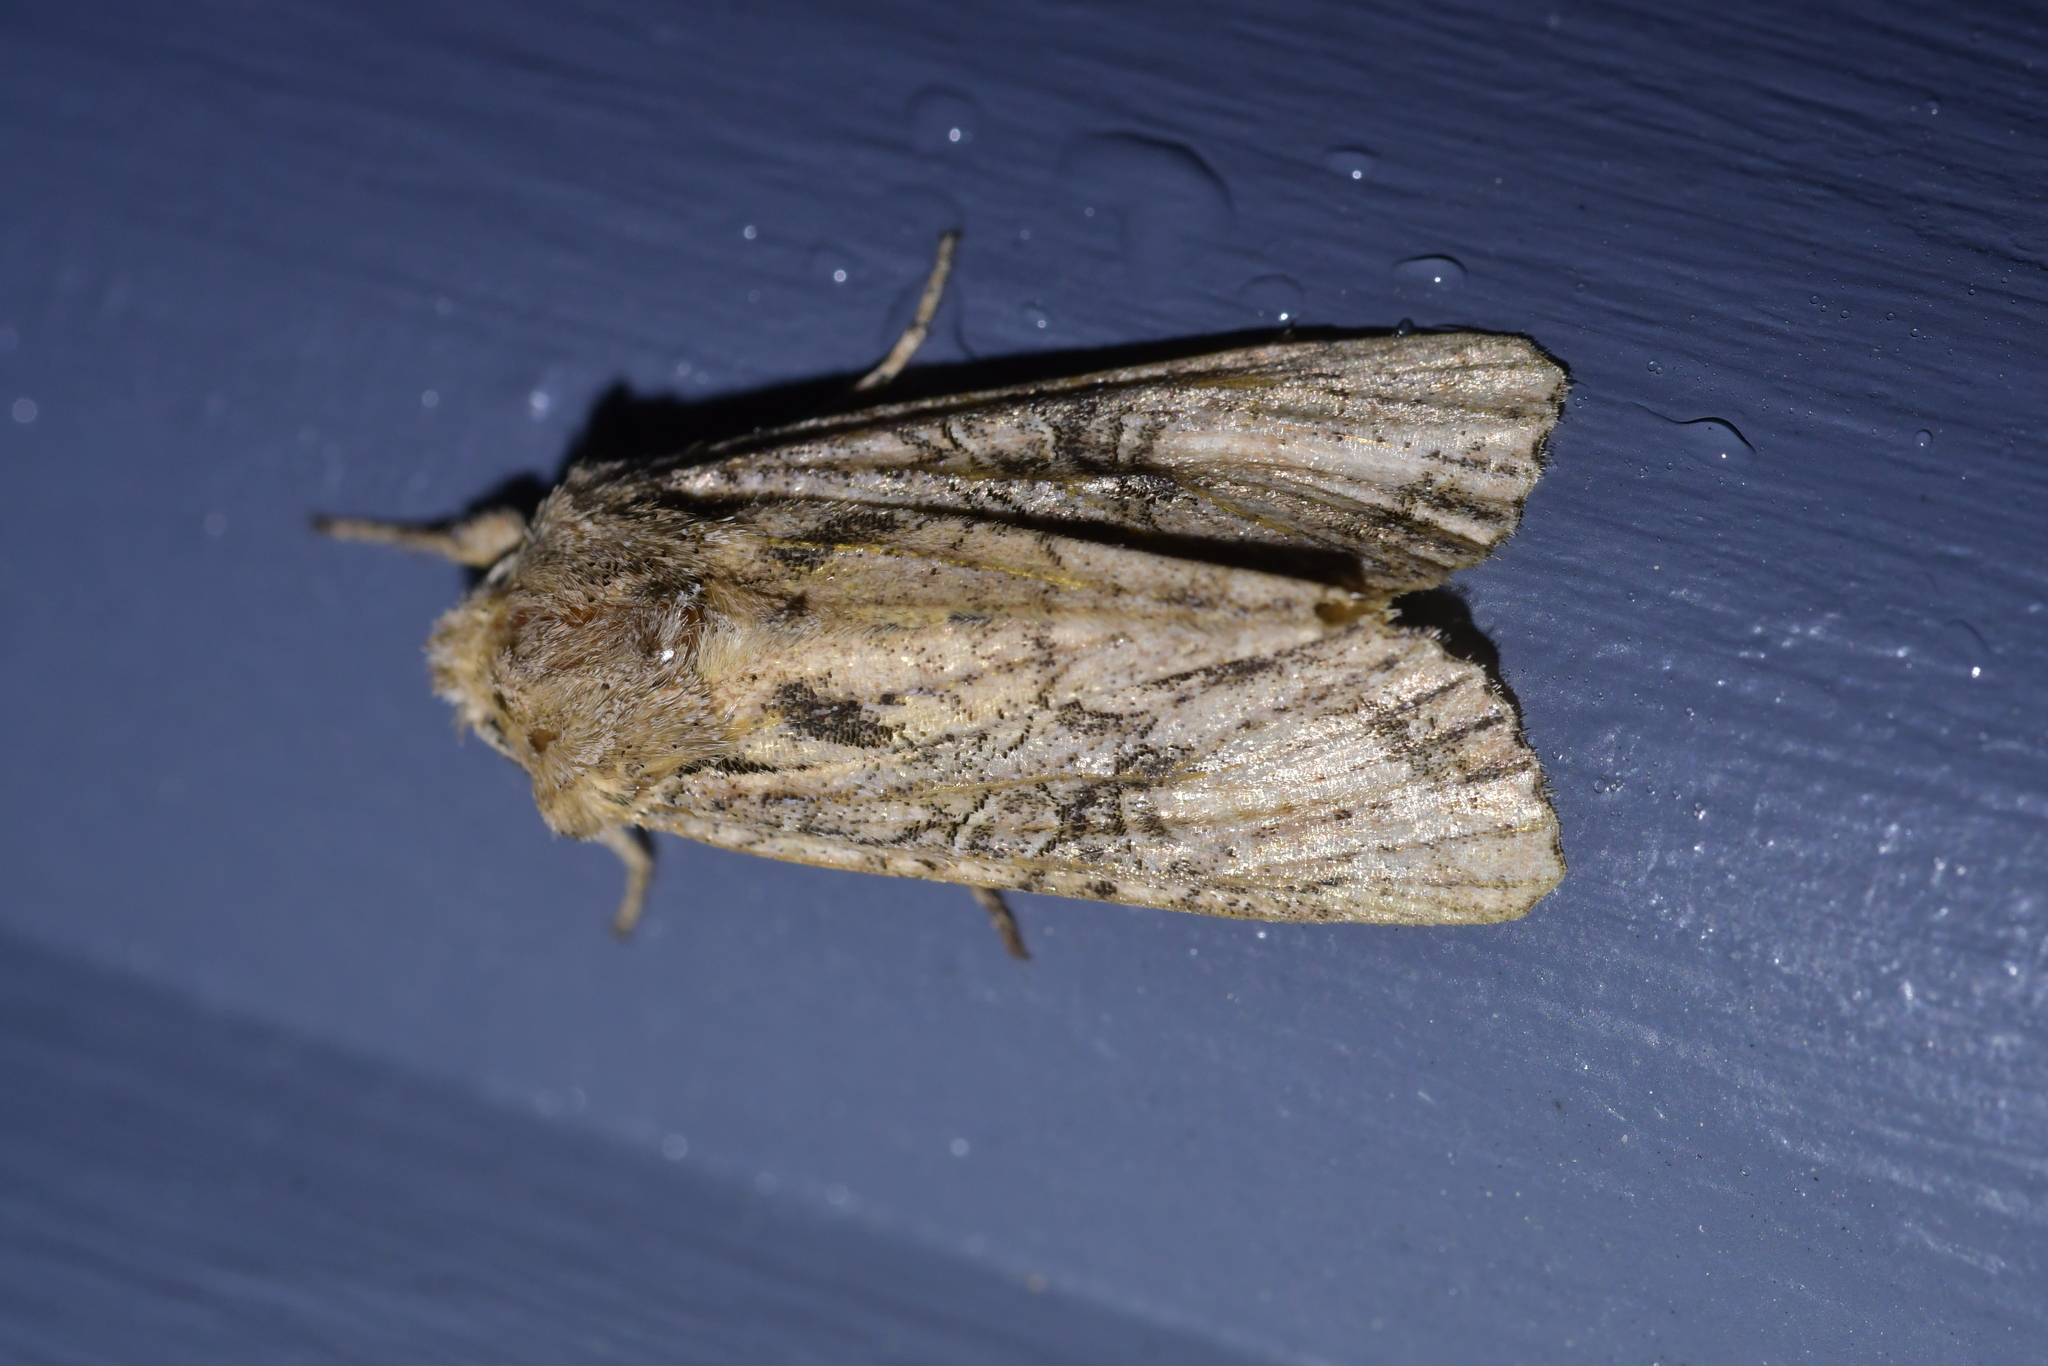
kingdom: Animalia
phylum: Arthropoda
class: Insecta
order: Lepidoptera
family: Noctuidae
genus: Ichneutica
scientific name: Ichneutica mutans
